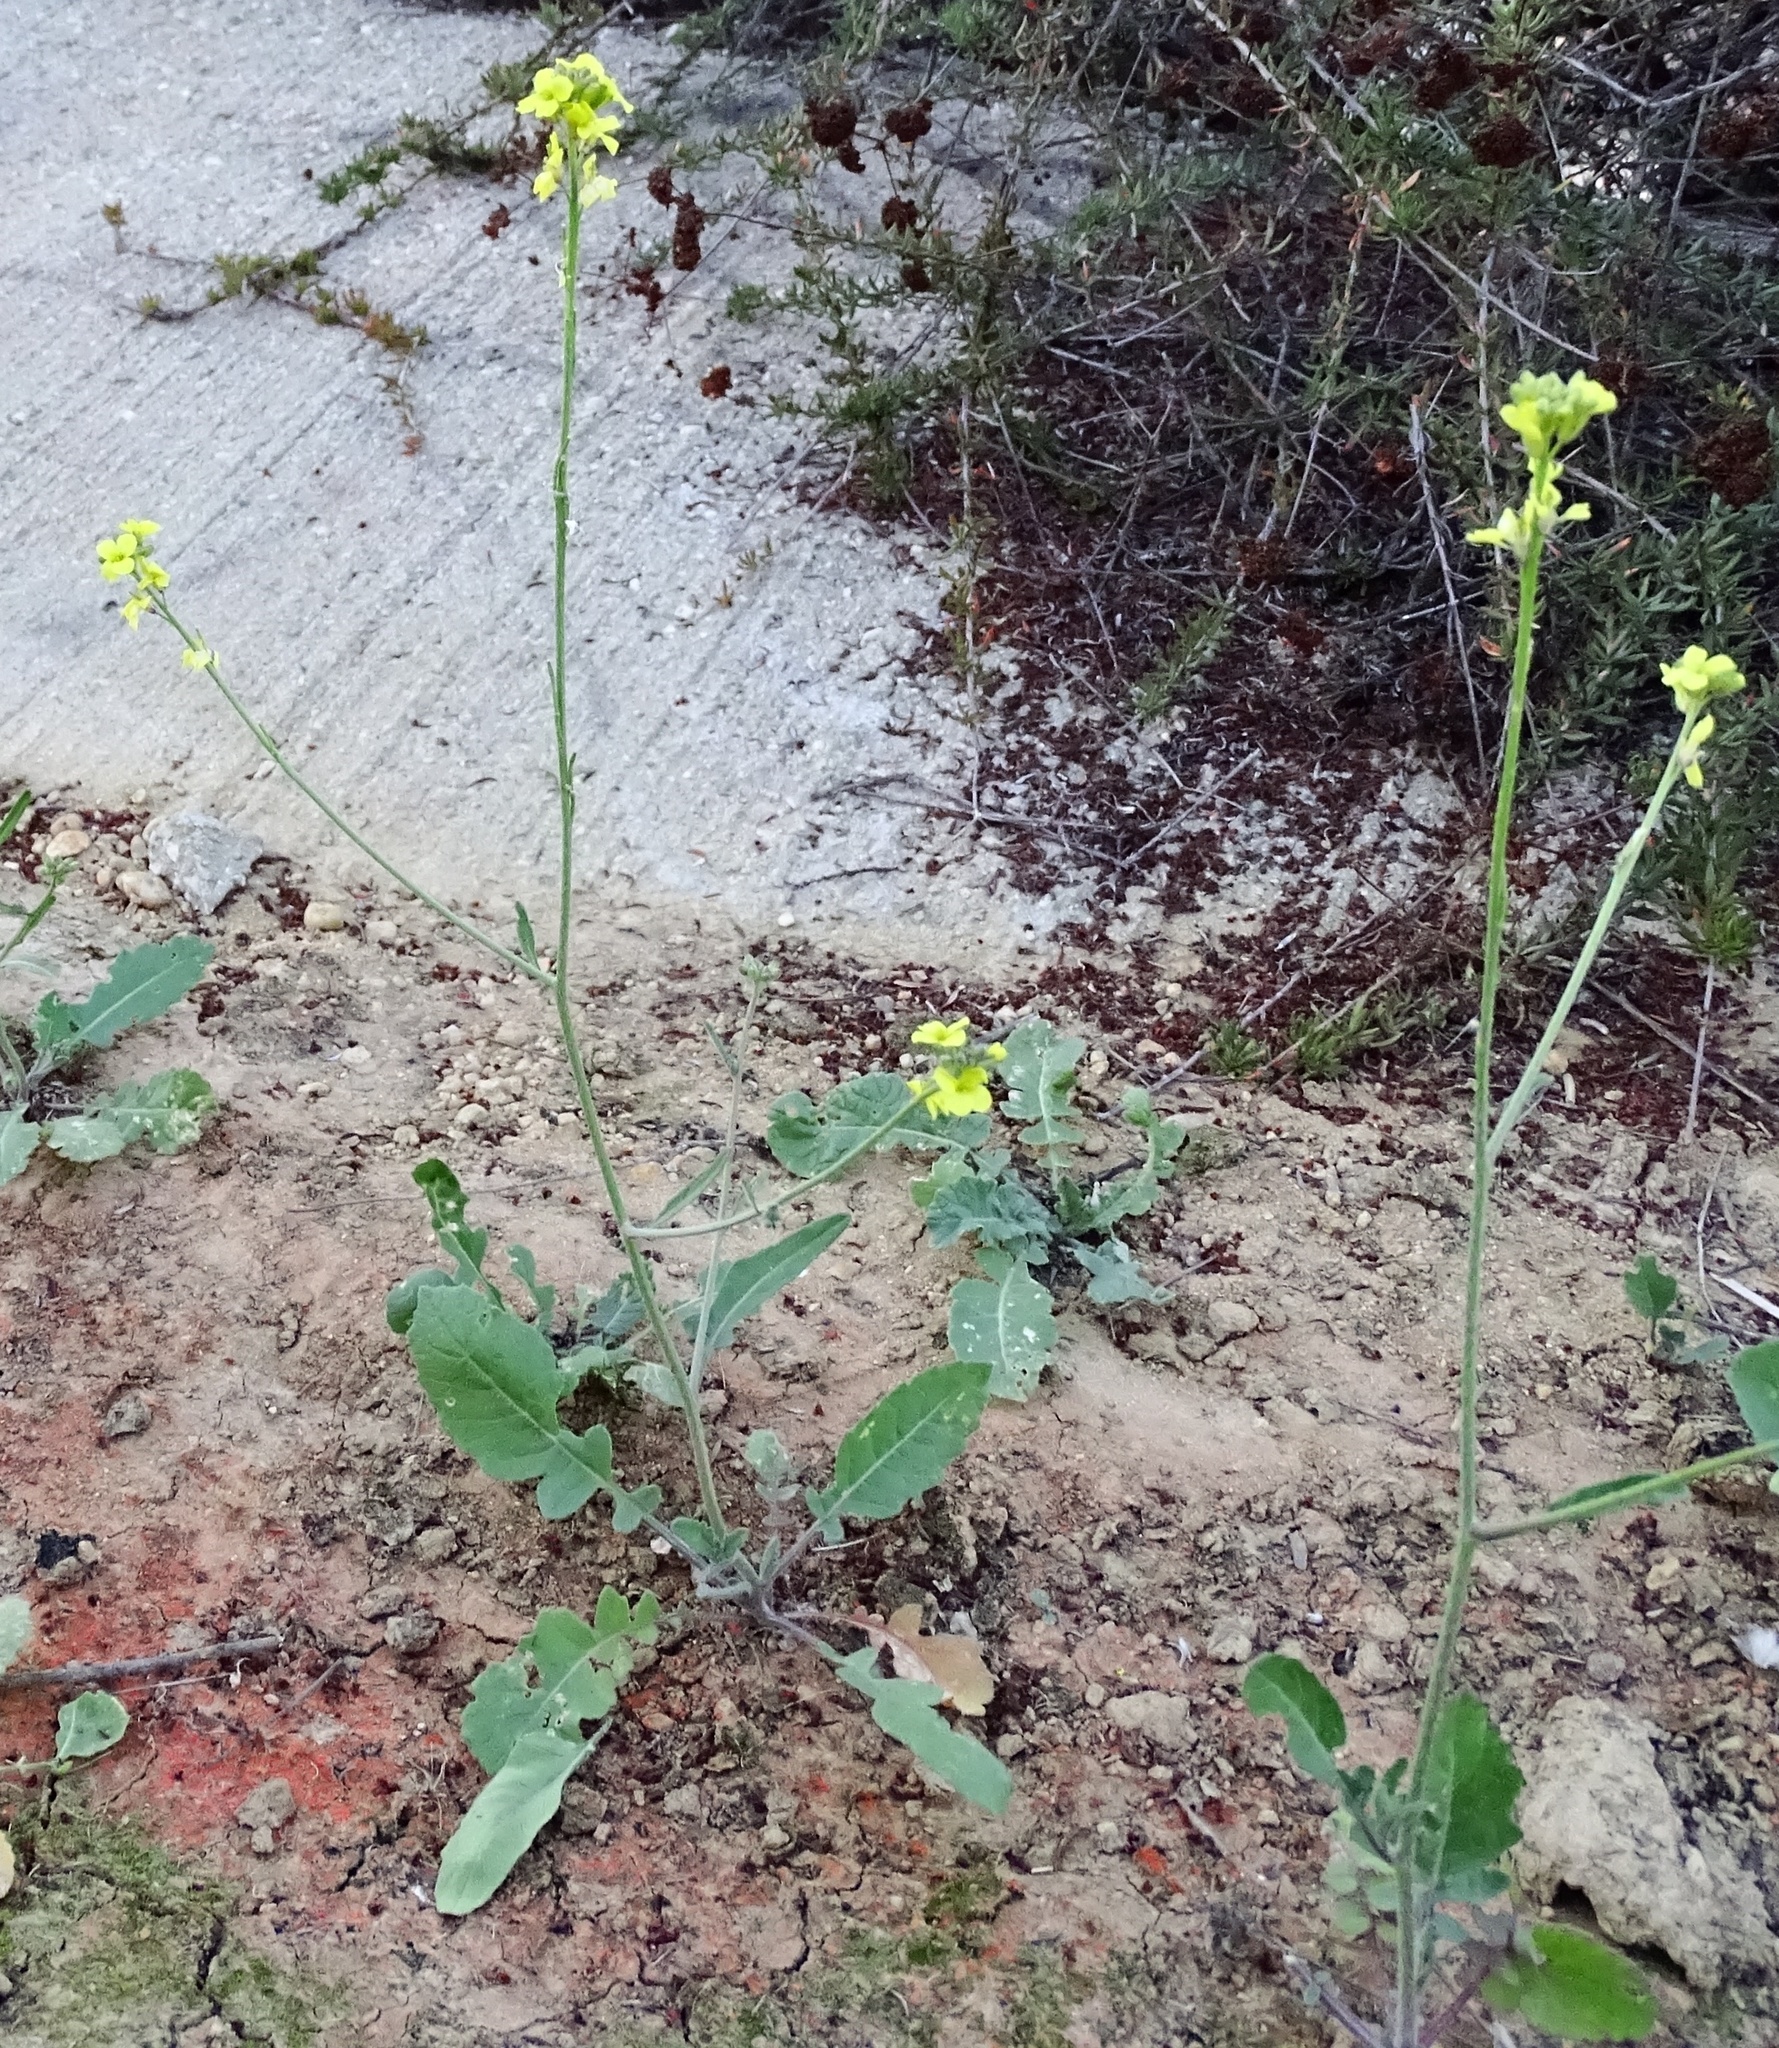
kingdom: Plantae
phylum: Tracheophyta
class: Magnoliopsida
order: Brassicales
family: Brassicaceae
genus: Hirschfeldia
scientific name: Hirschfeldia incana
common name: Hoary mustard
